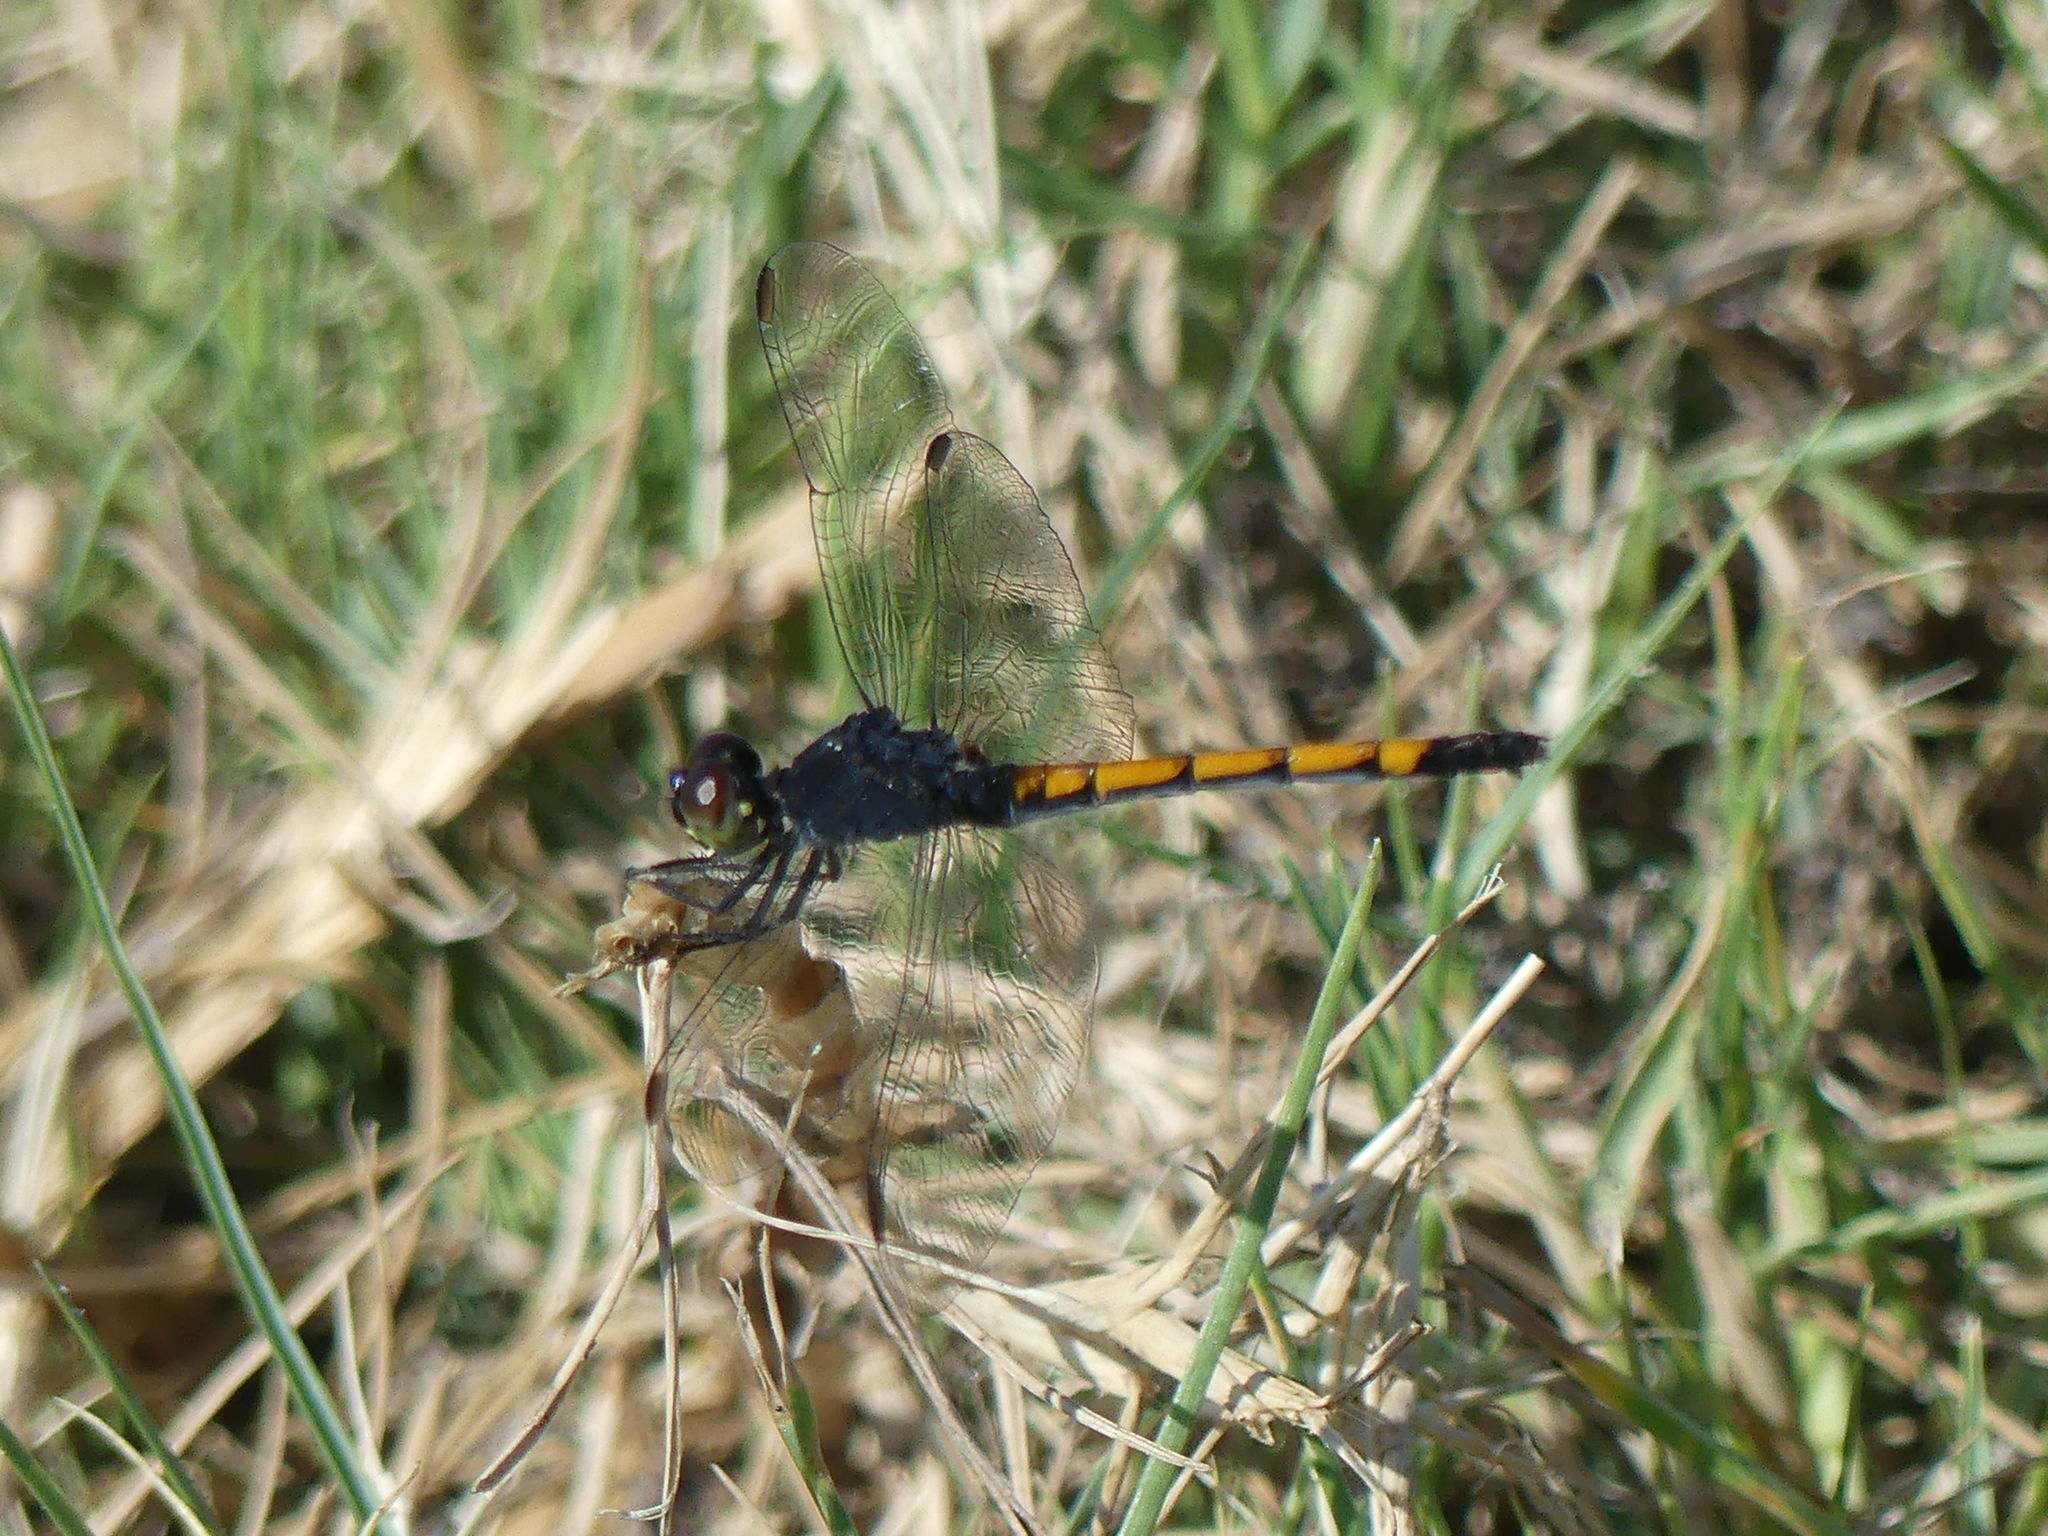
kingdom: Animalia
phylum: Arthropoda
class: Insecta
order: Odonata
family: Libellulidae
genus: Erythrodiplax
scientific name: Erythrodiplax berenice
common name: Seaside dragonlet
